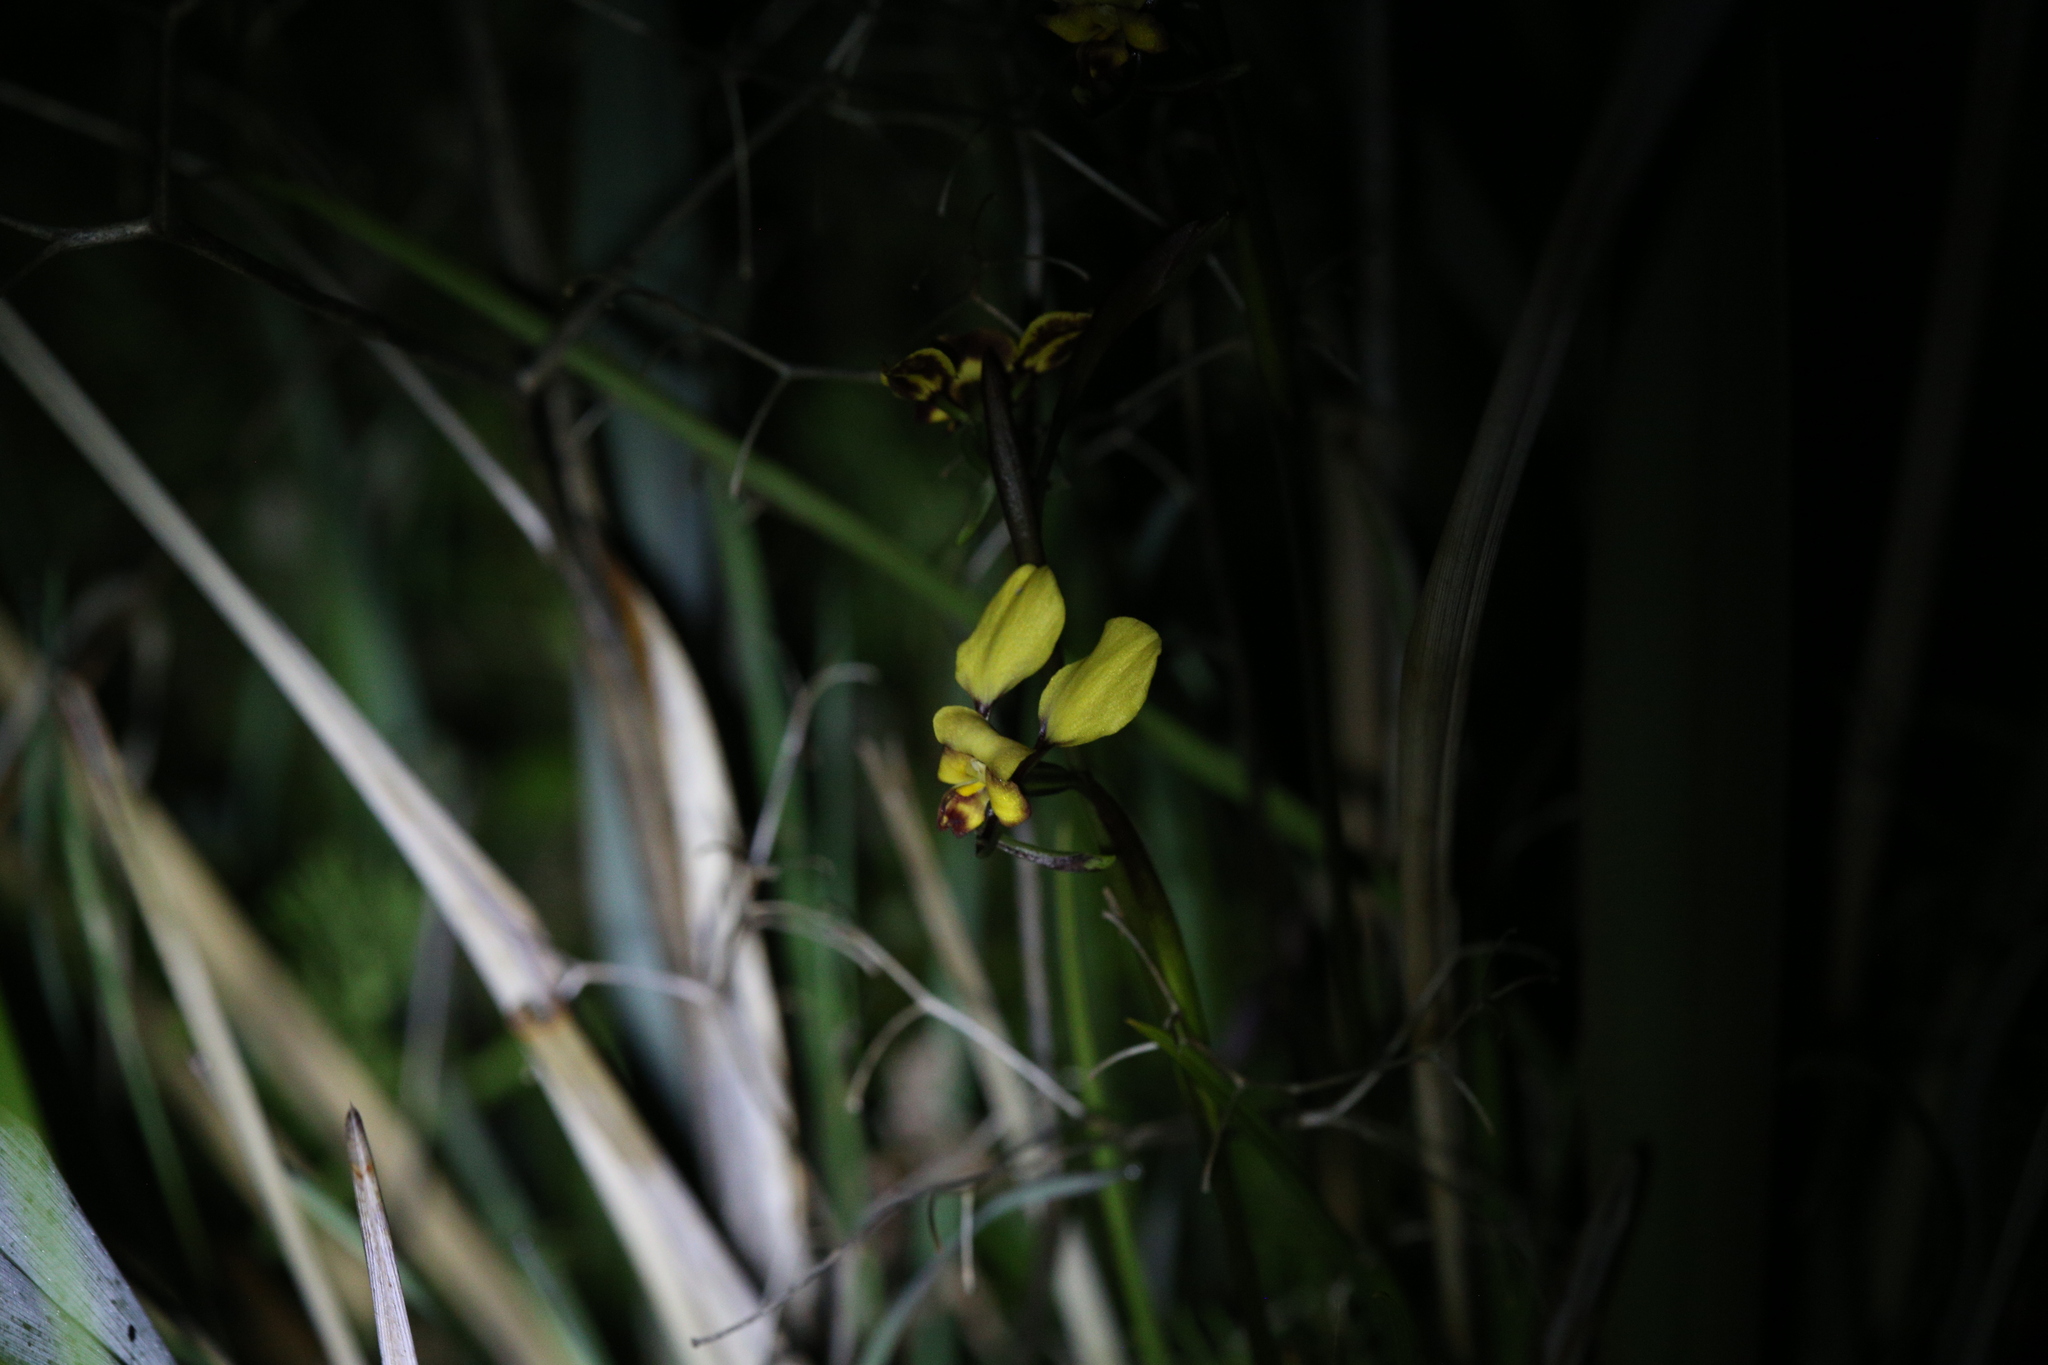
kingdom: Plantae
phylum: Tracheophyta
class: Liliopsida
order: Asparagales
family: Orchidaceae
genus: Diuris
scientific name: Diuris hazeliae
